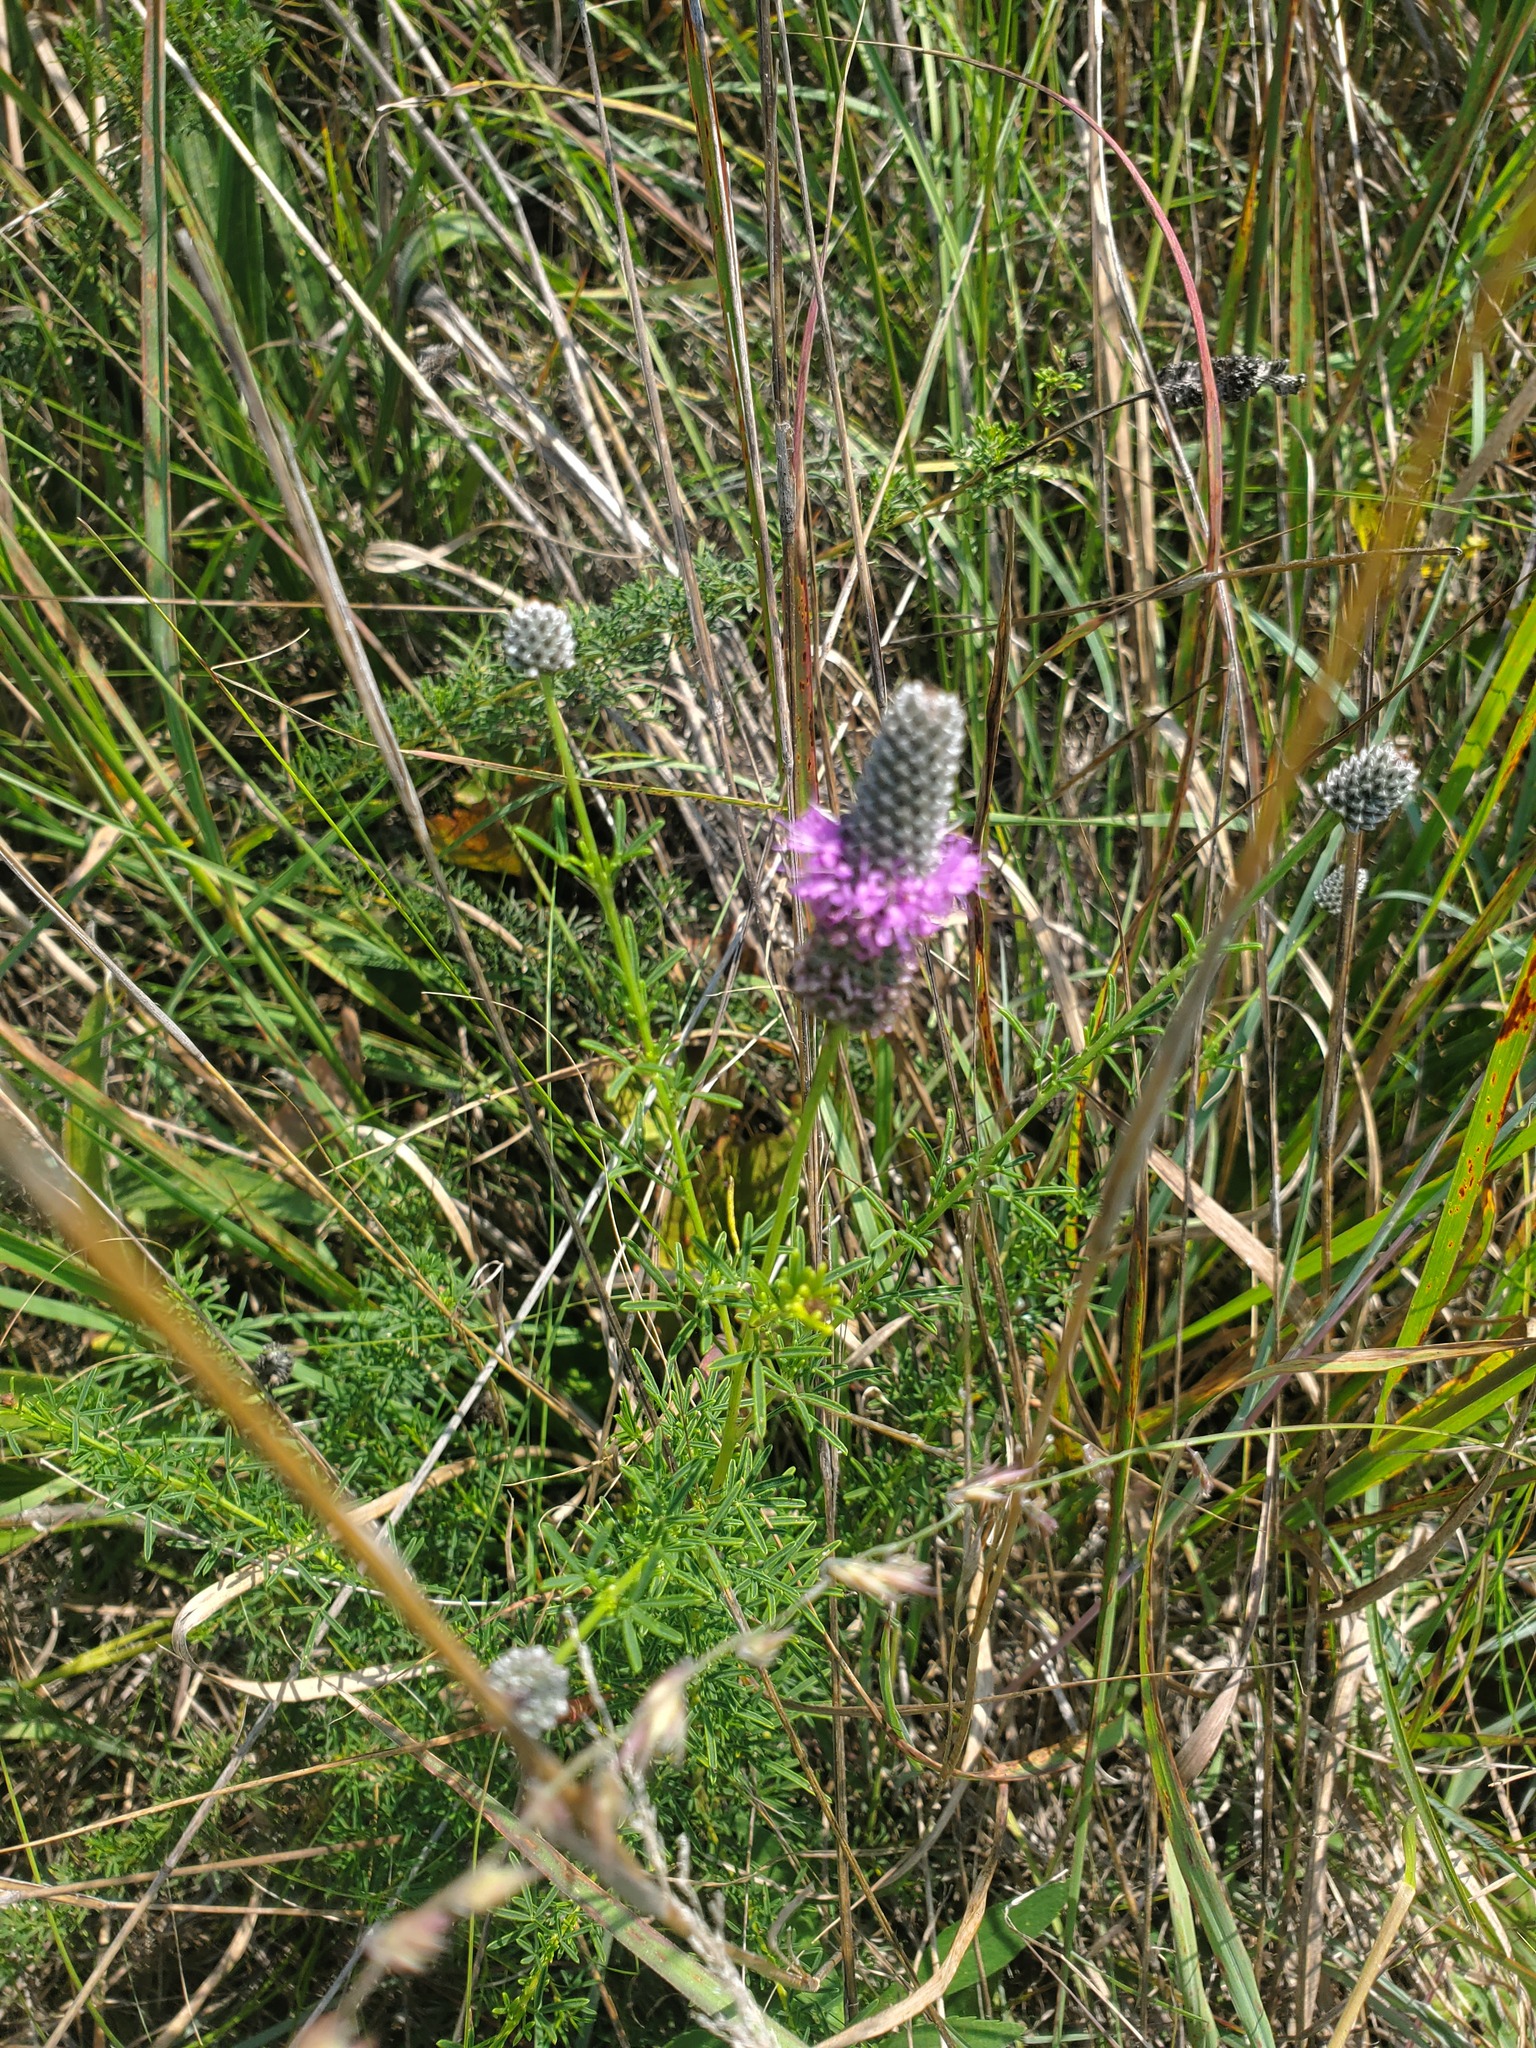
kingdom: Plantae
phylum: Tracheophyta
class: Magnoliopsida
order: Fabales
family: Fabaceae
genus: Dalea
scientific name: Dalea purpurea
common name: Purple prairie-clover
